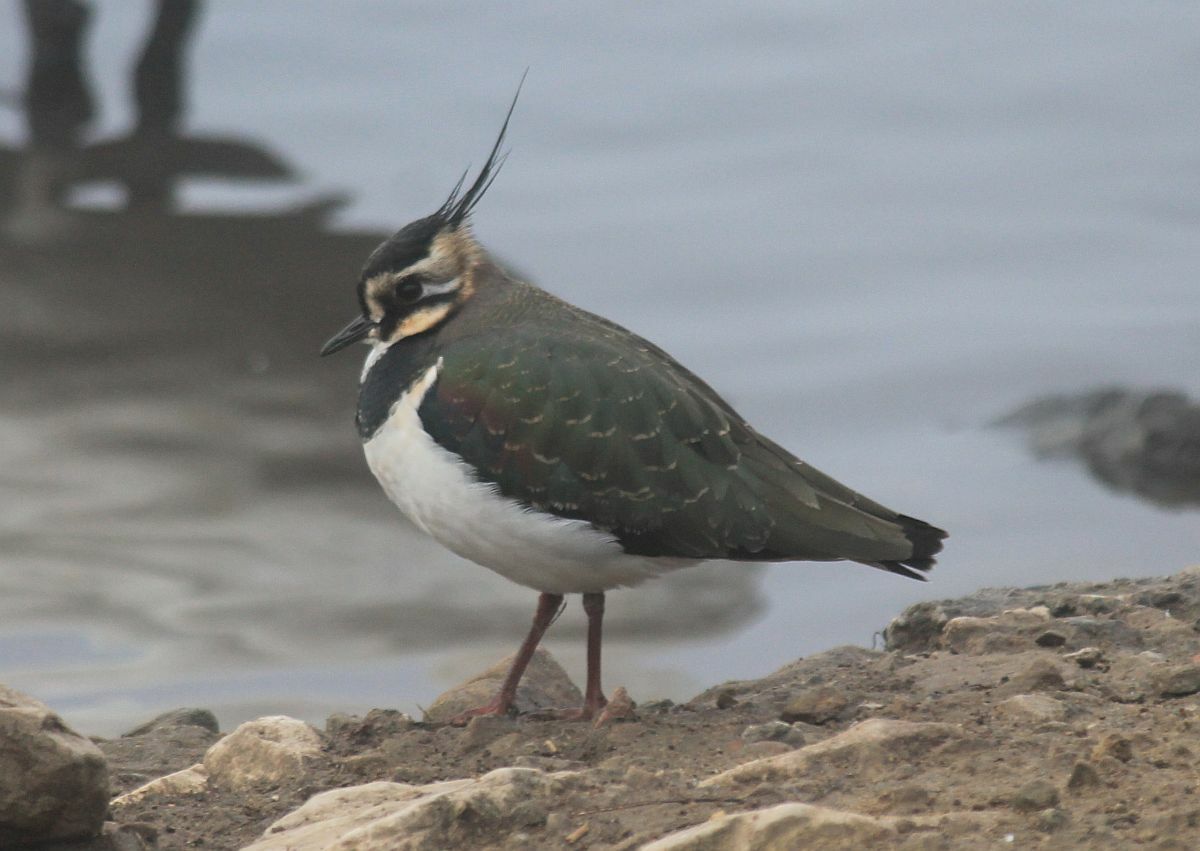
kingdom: Animalia
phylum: Chordata
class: Aves
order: Charadriiformes
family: Charadriidae
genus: Vanellus
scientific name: Vanellus vanellus
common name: Northern lapwing
